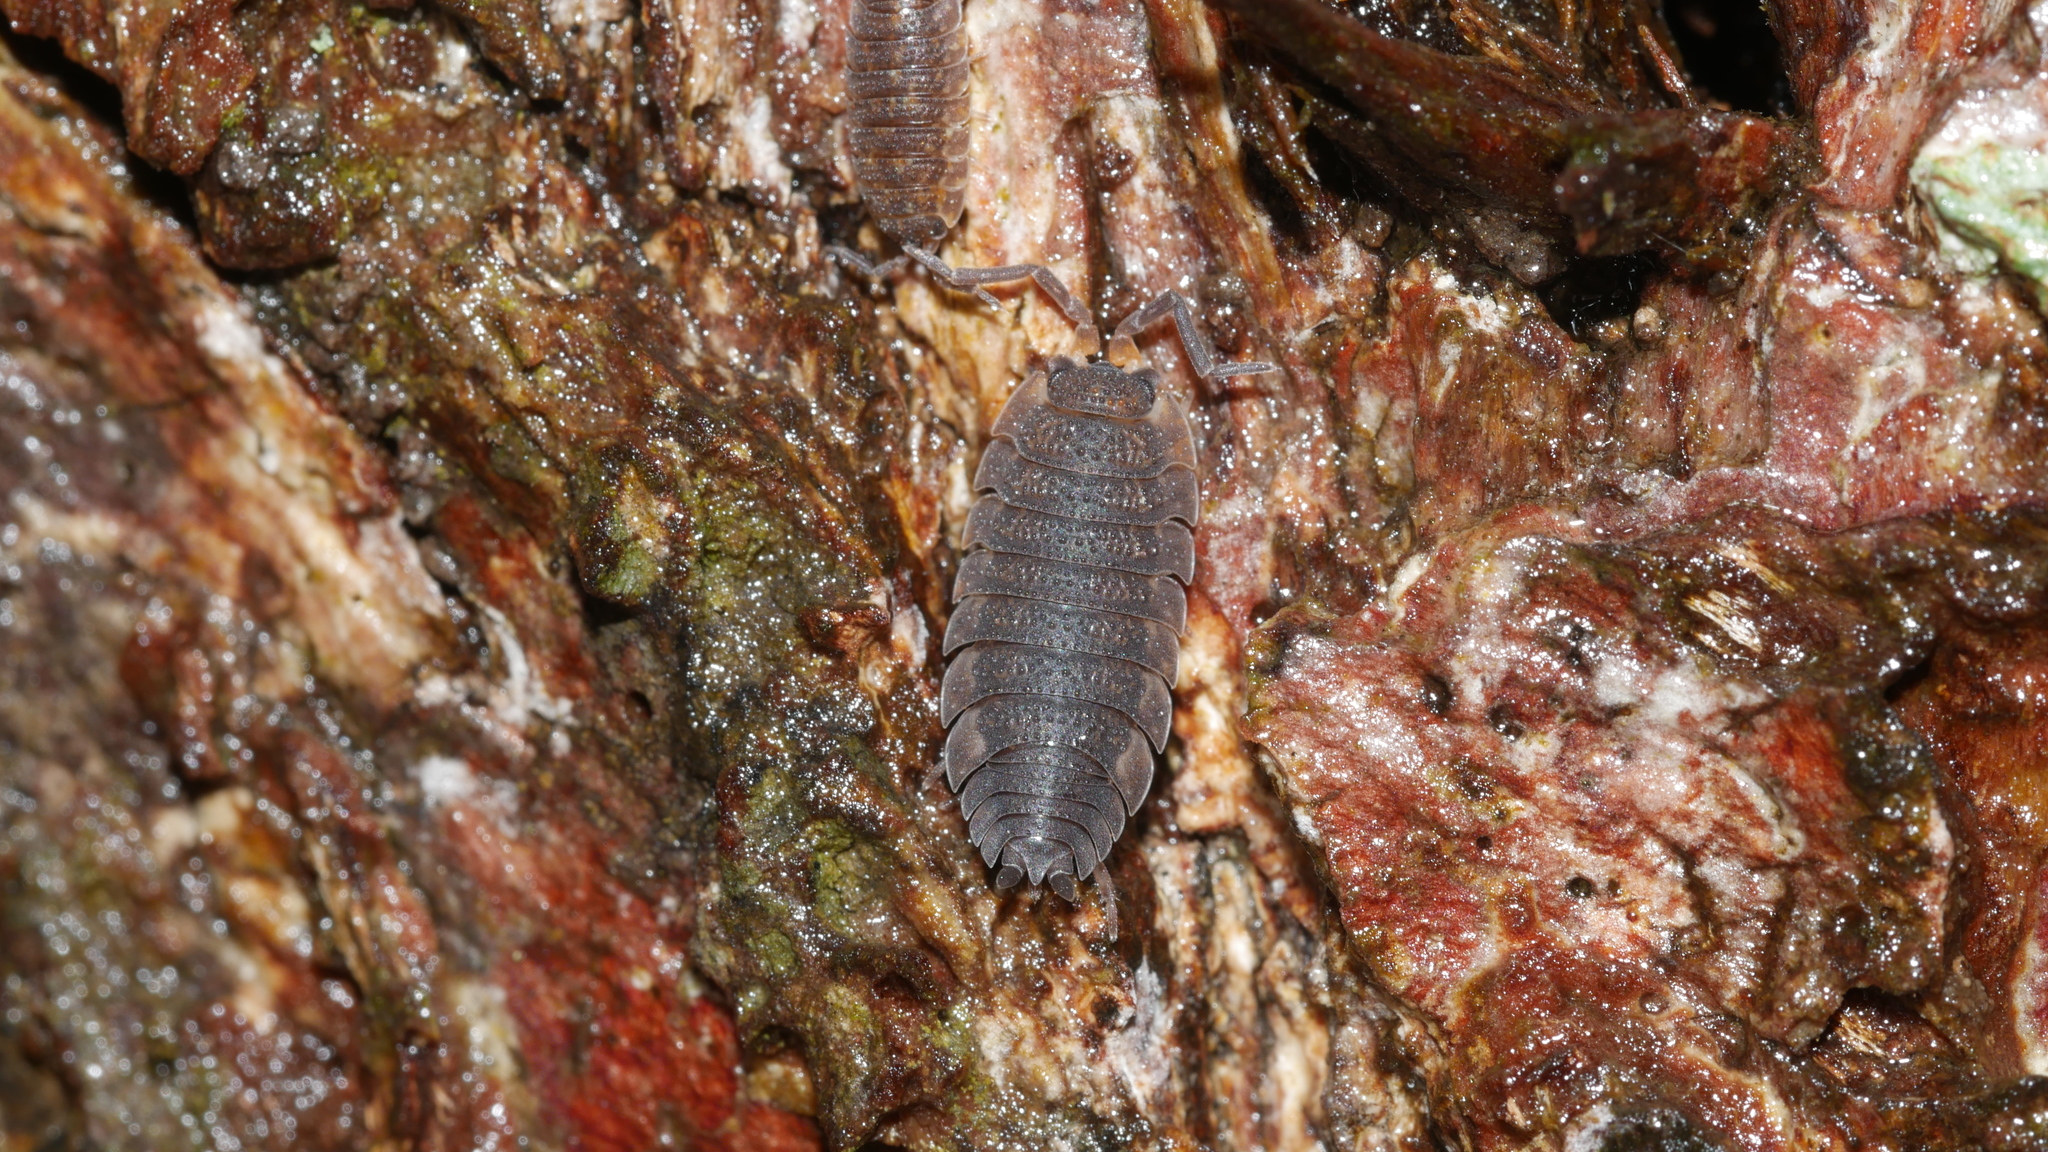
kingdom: Animalia
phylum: Arthropoda
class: Malacostraca
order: Isopoda
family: Porcellionidae
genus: Porcellio
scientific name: Porcellio scaber
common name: Common rough woodlouse
